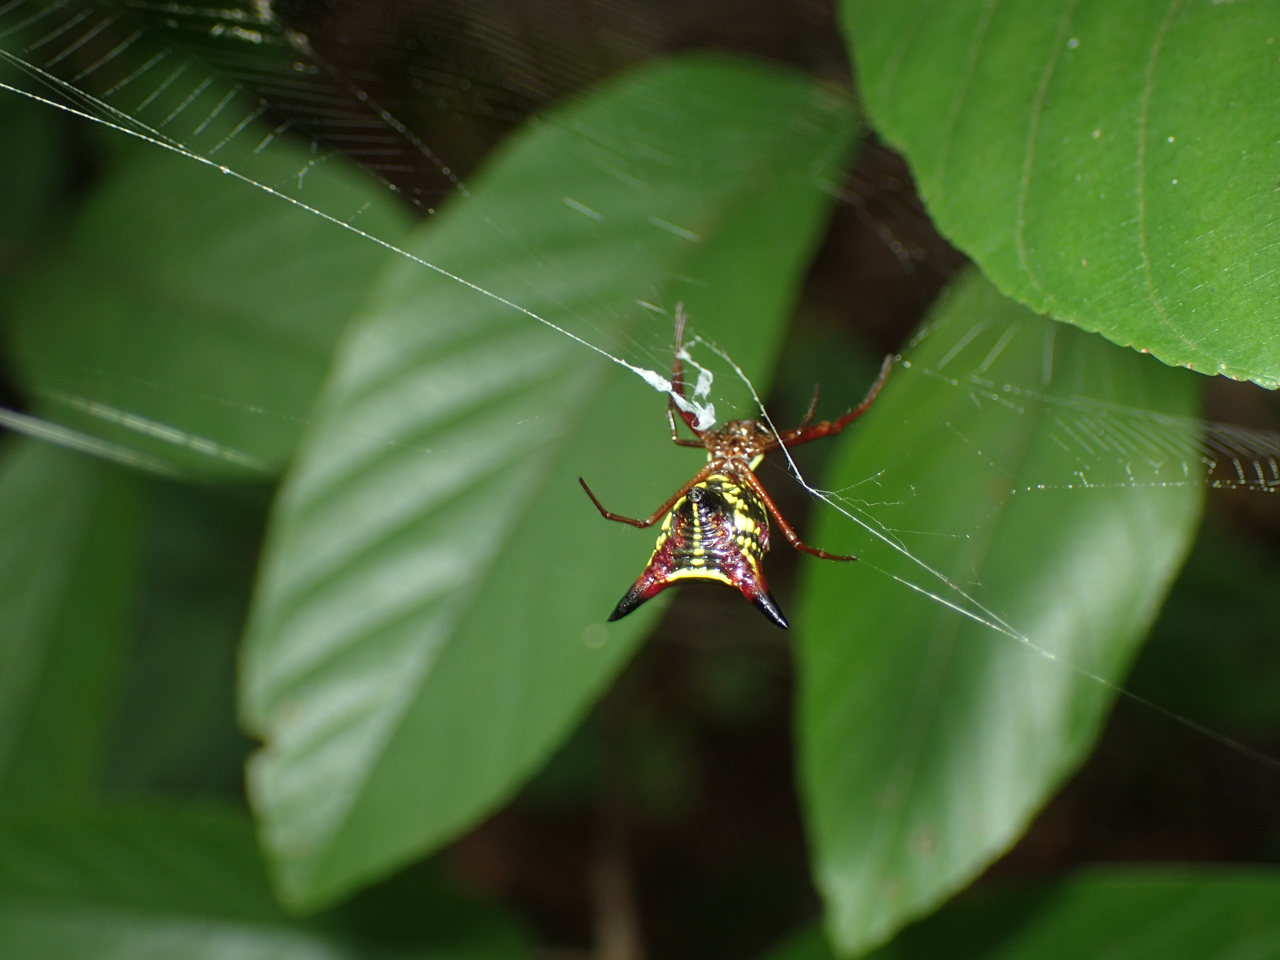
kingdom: Animalia
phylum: Arthropoda
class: Arachnida
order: Araneae
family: Araneidae
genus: Micrathena
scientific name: Micrathena sagittata
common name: Orb weavers
